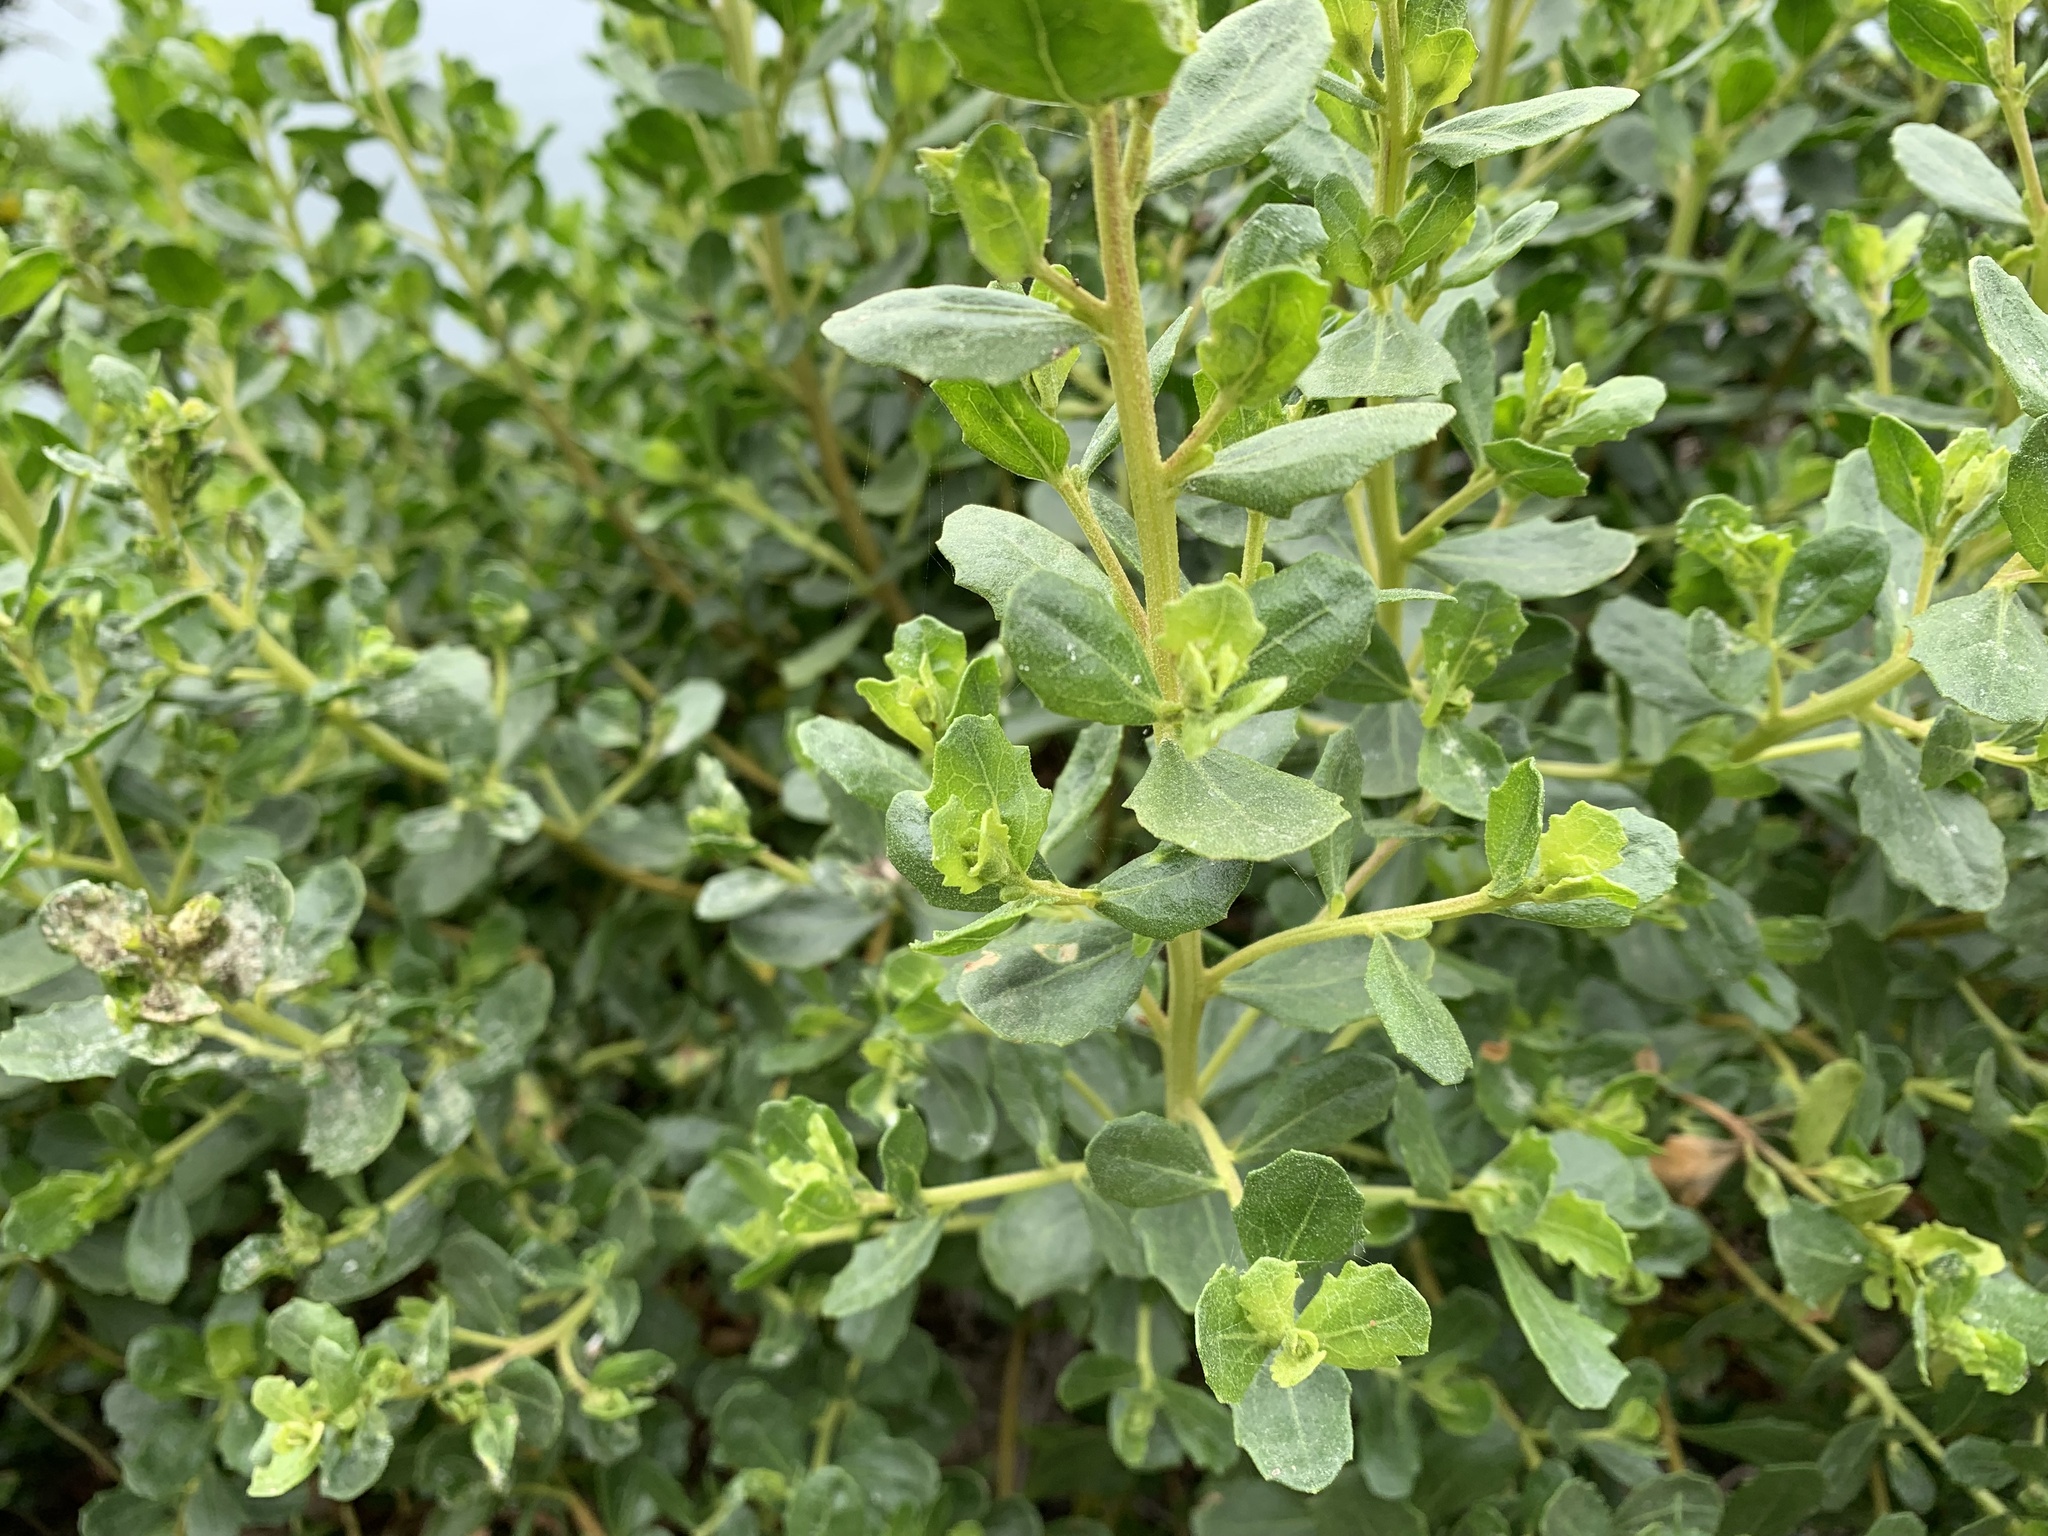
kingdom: Animalia
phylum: Arthropoda
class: Insecta
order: Diptera
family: Cecidomyiidae
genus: Rhopalomyia
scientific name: Rhopalomyia californica
